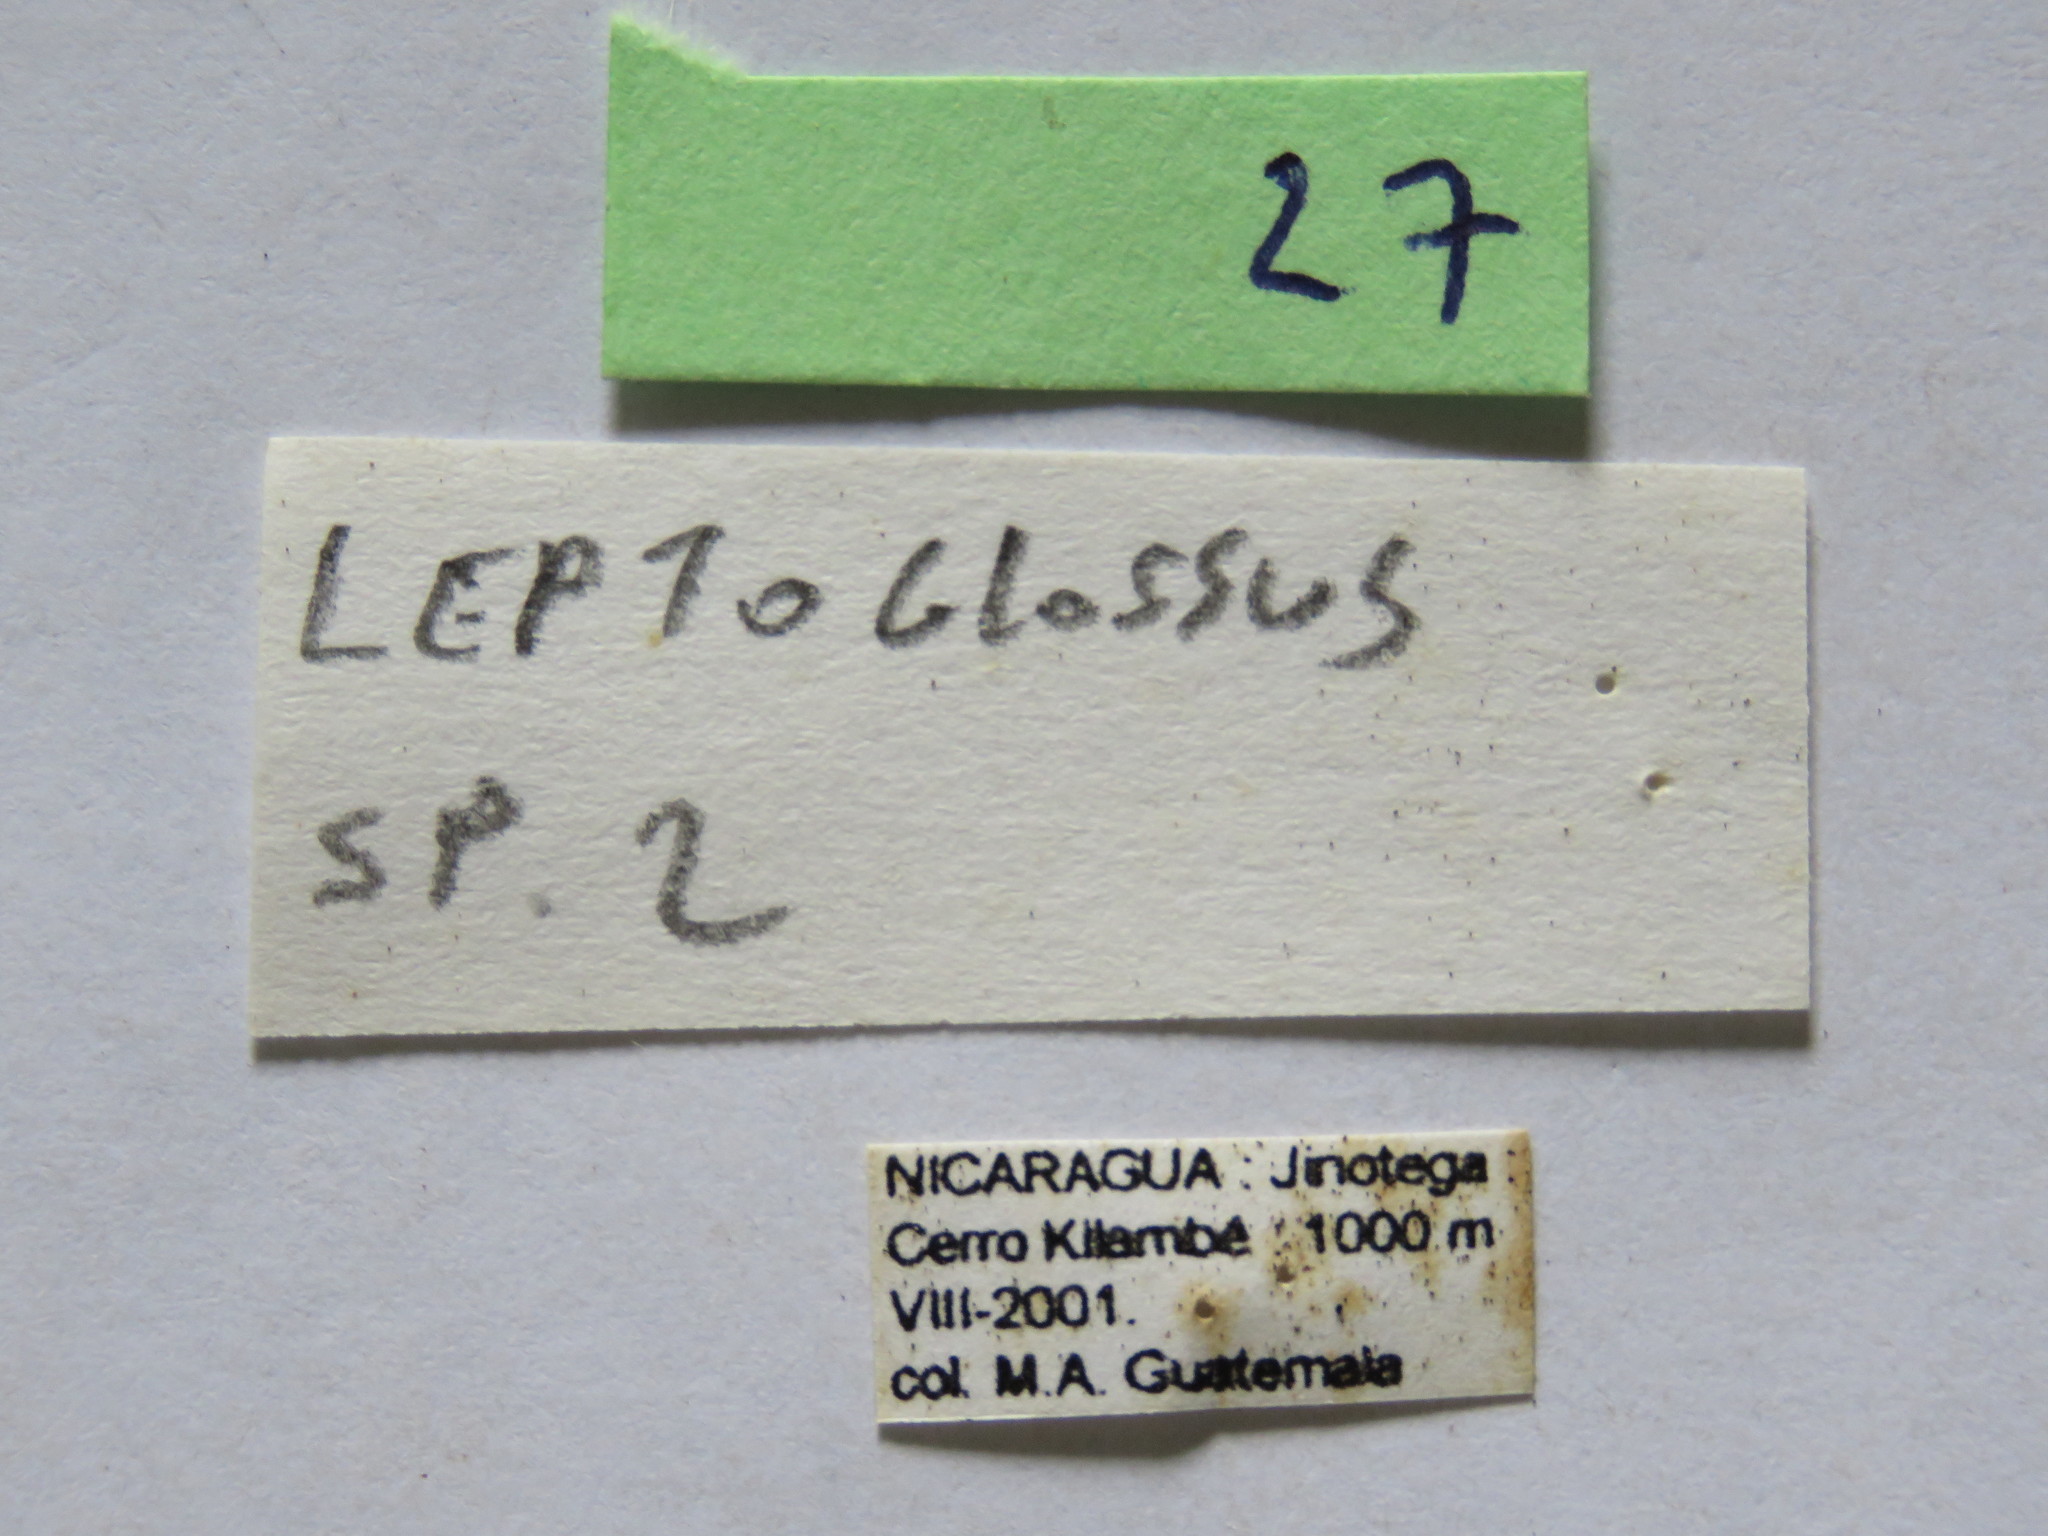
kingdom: Animalia
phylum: Arthropoda
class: Insecta
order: Hemiptera
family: Coreidae
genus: Anisoscelis
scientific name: Anisoscelis gradadius
